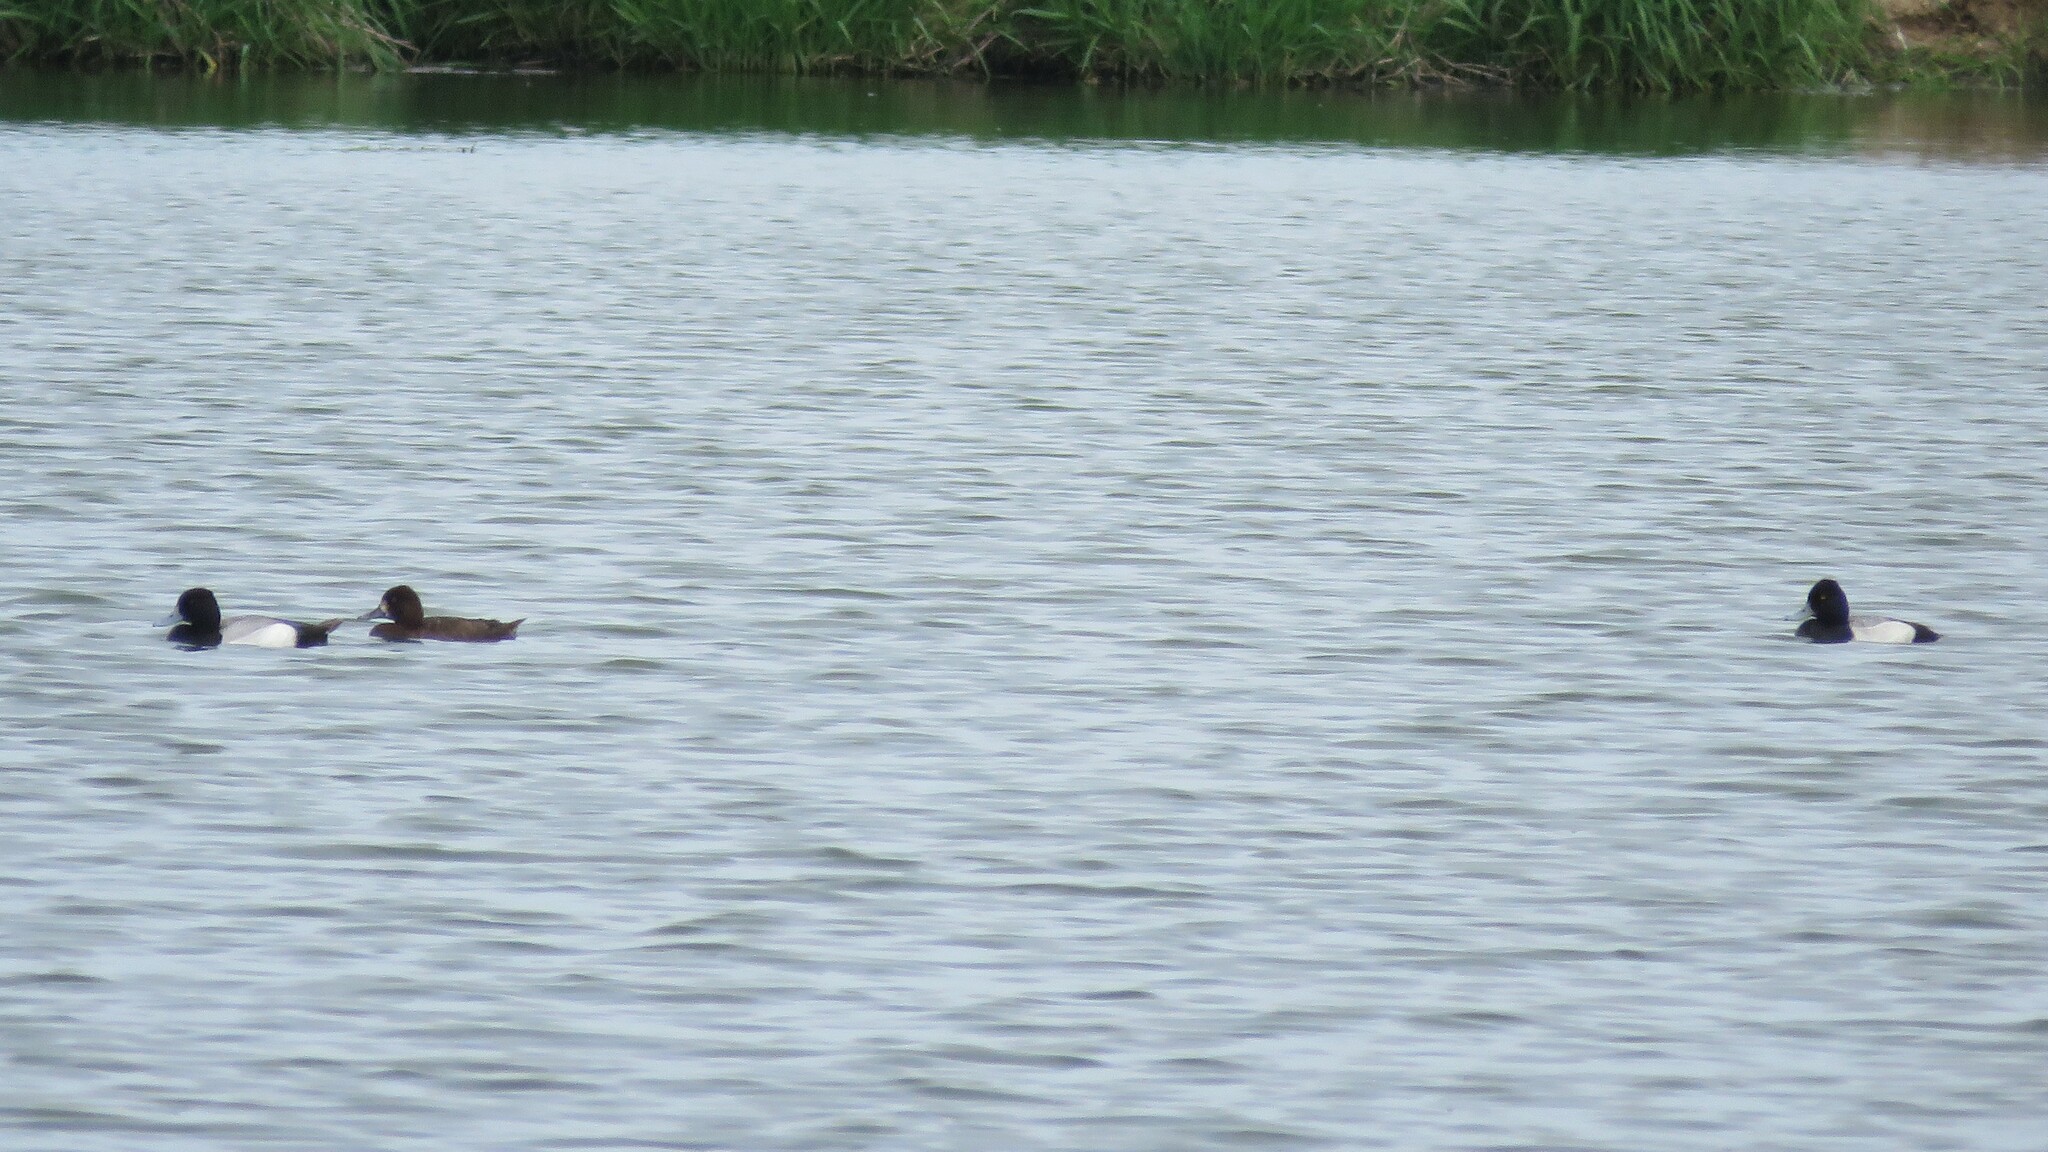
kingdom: Animalia
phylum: Chordata
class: Aves
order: Anseriformes
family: Anatidae
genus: Aythya
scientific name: Aythya affinis
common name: Lesser scaup
